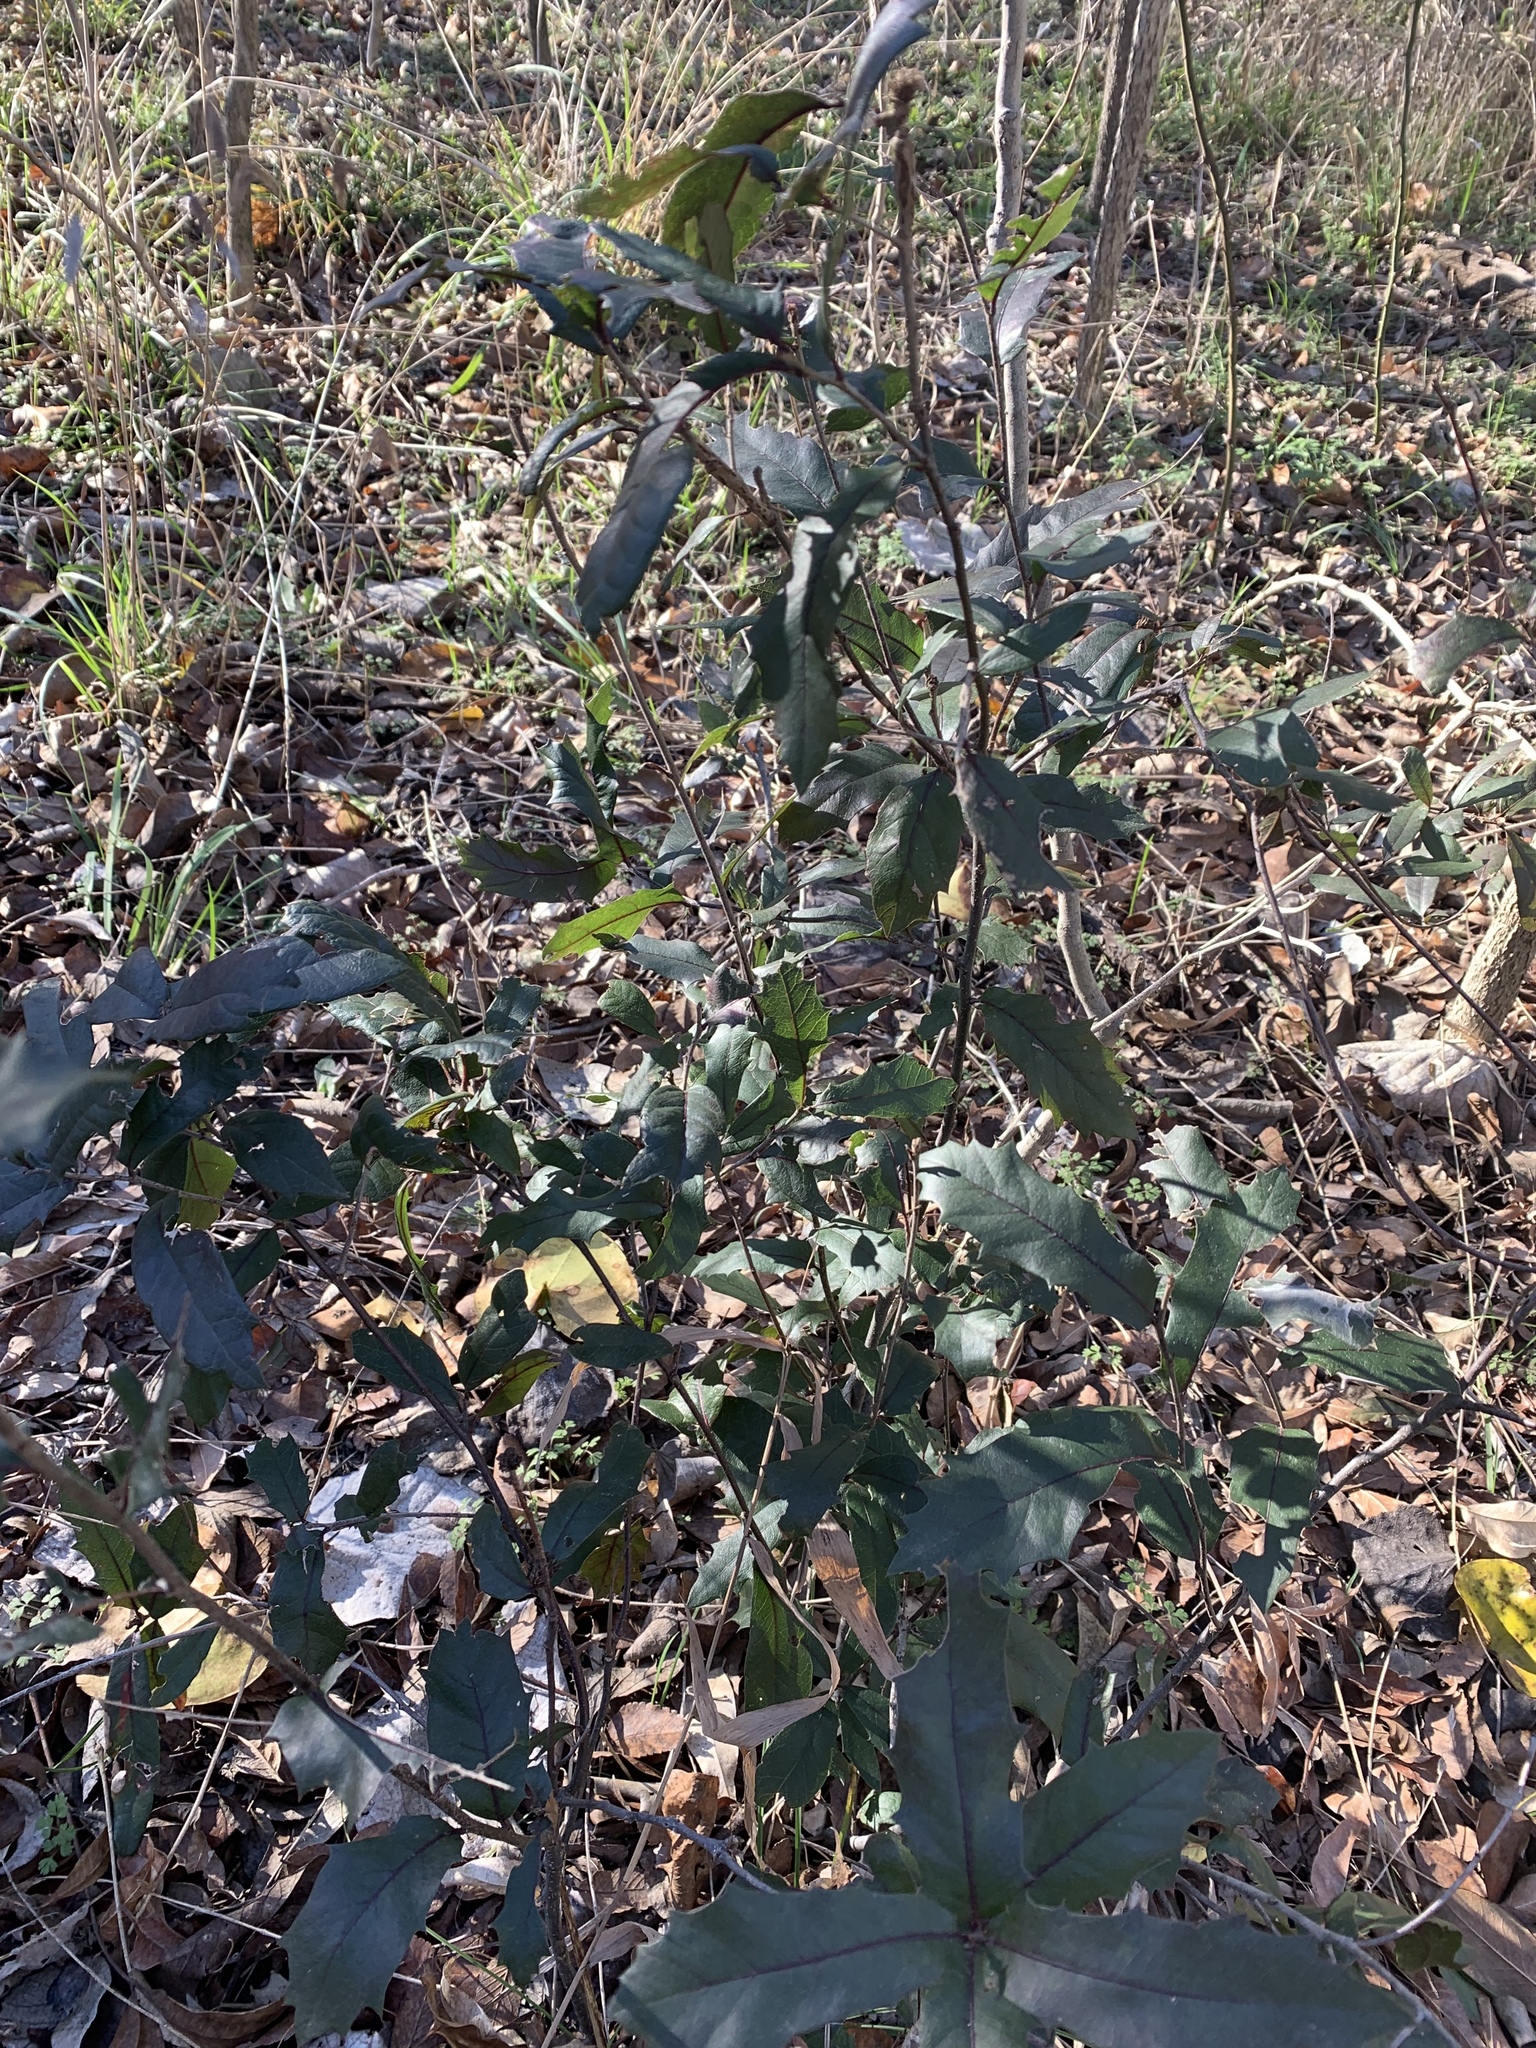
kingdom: Plantae
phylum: Tracheophyta
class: Magnoliopsida
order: Fagales
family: Fagaceae
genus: Quercus
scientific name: Quercus fusiformis
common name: Texas live oak
